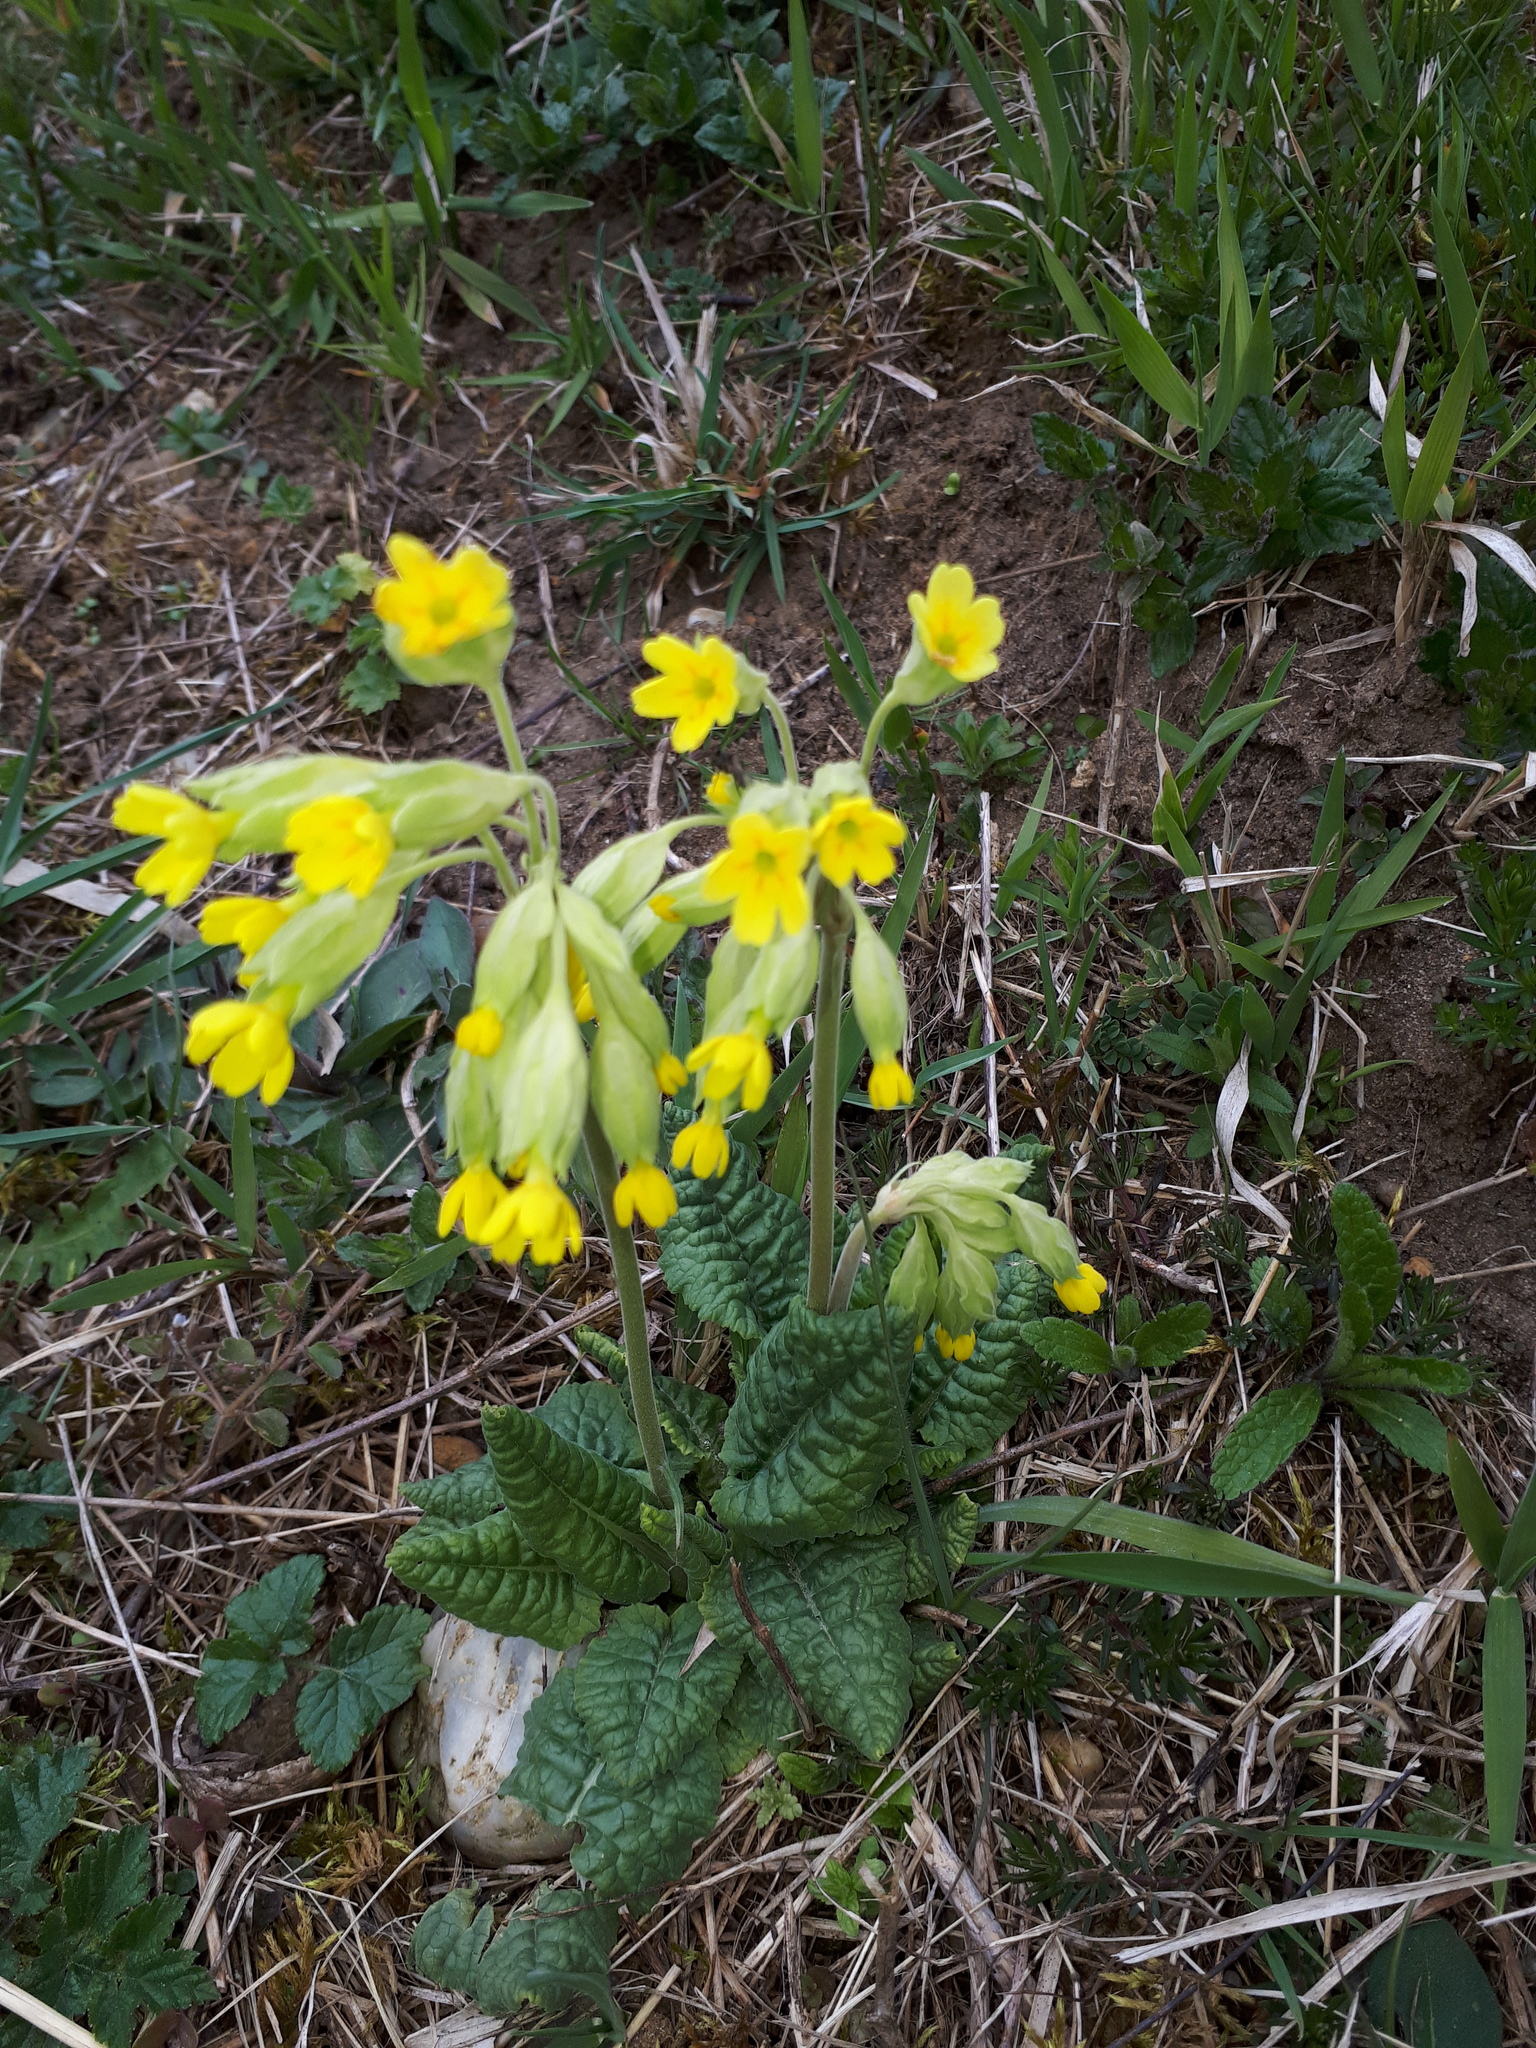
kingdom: Plantae
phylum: Tracheophyta
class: Magnoliopsida
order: Ericales
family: Primulaceae
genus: Primula
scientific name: Primula veris
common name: Cowslip
